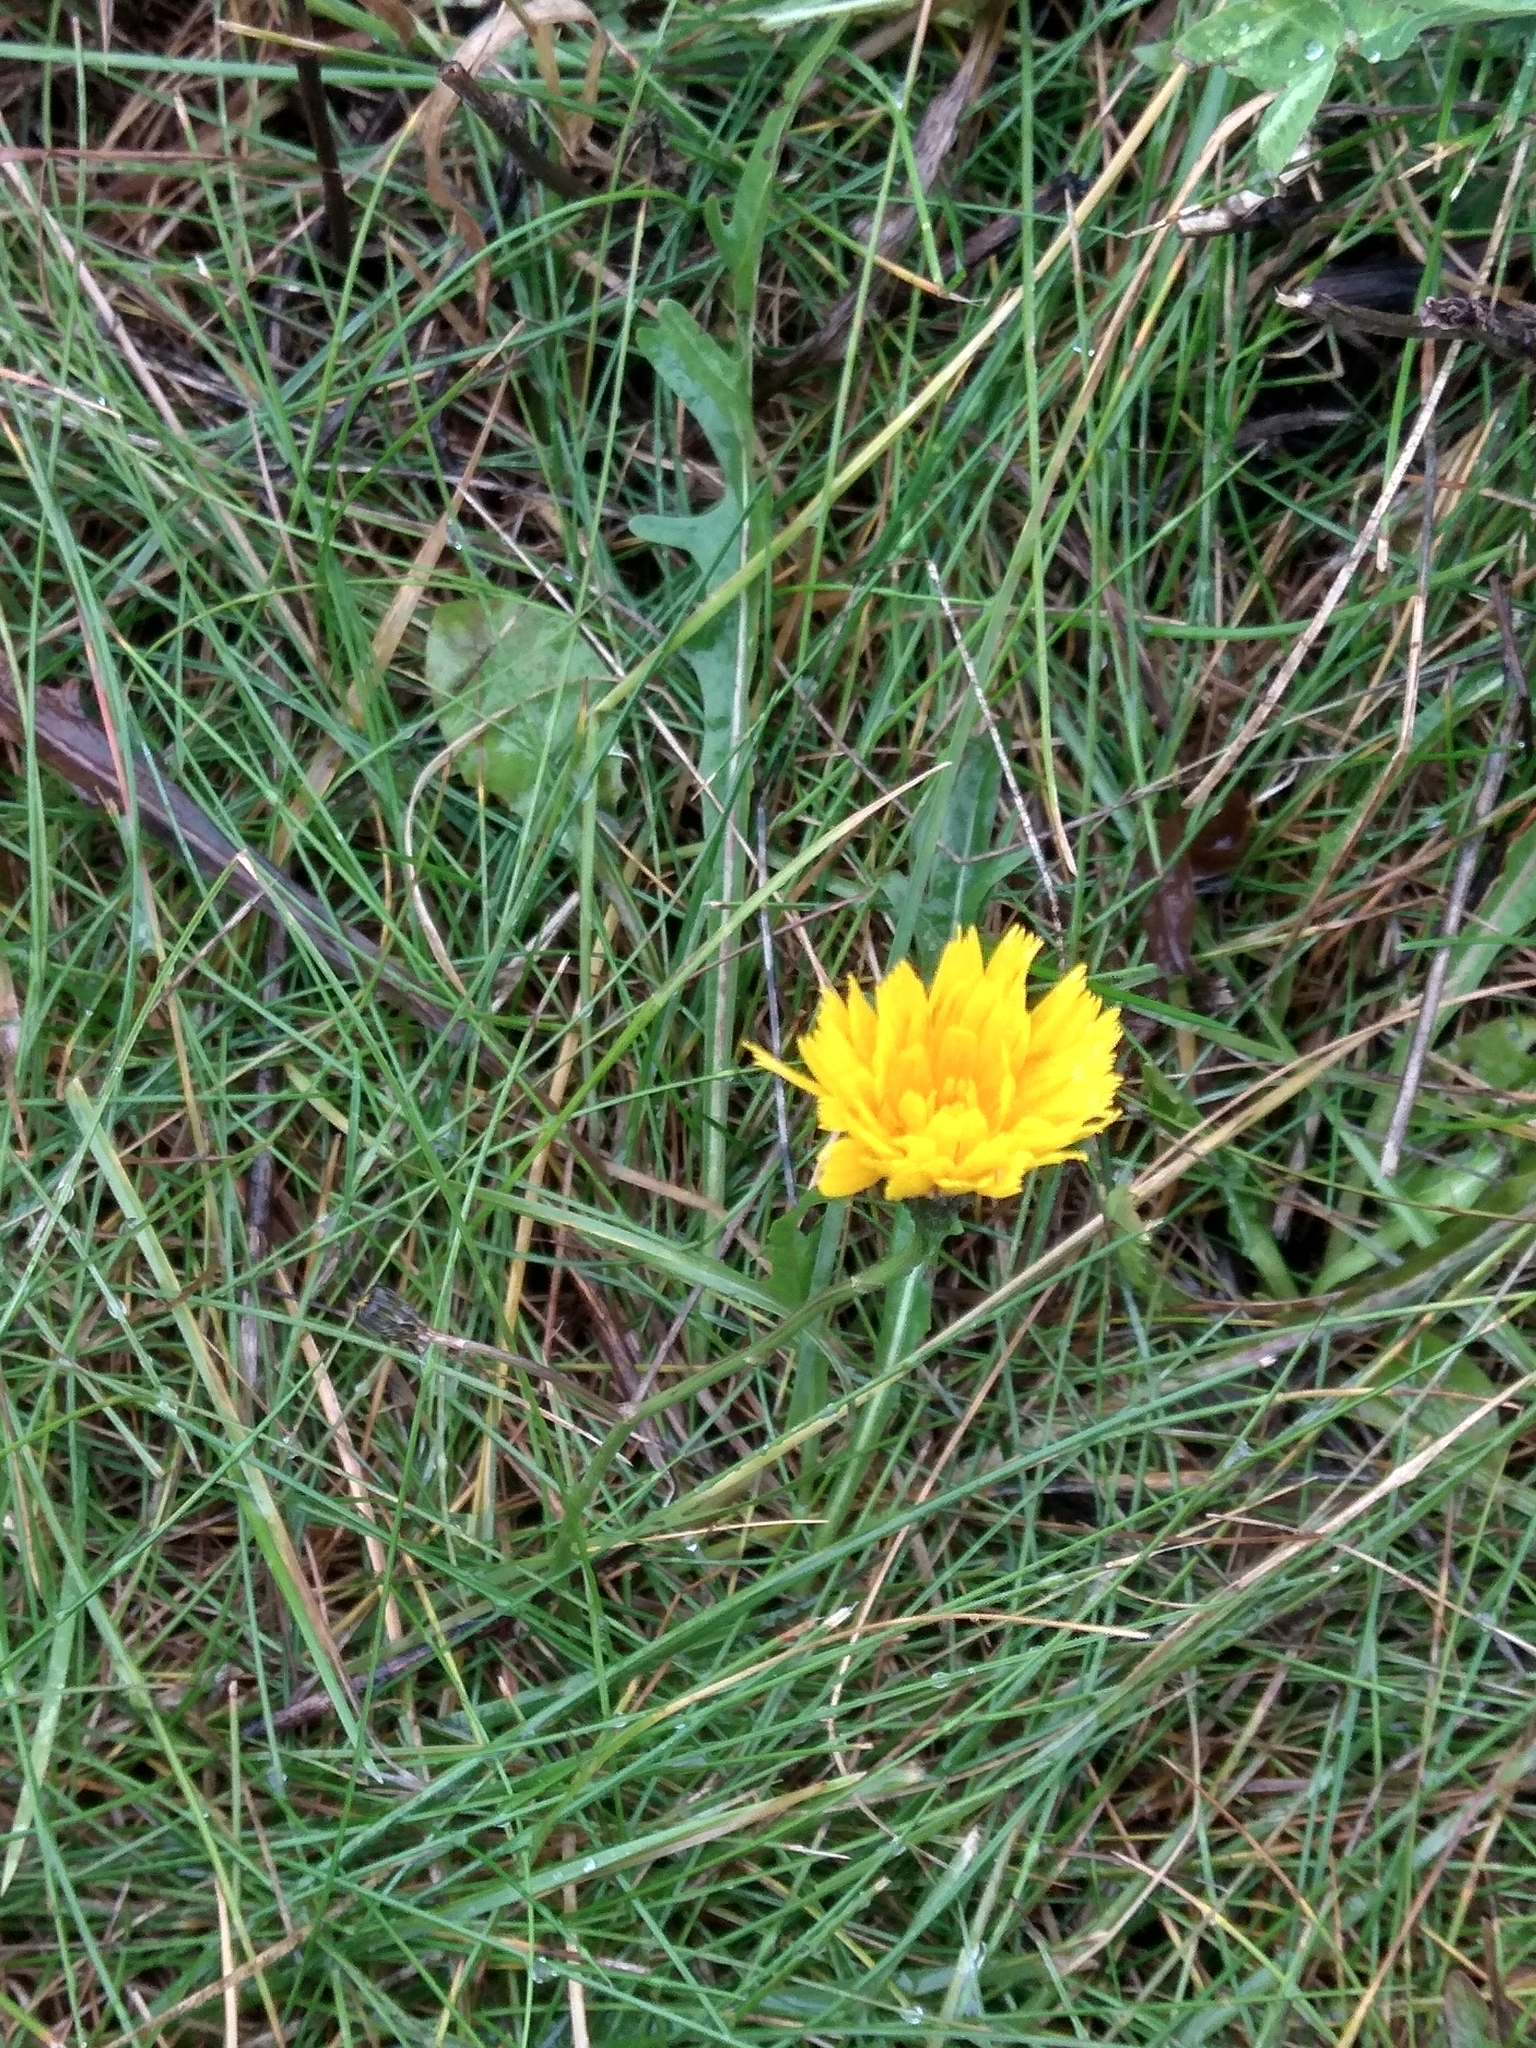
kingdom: Plantae
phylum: Tracheophyta
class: Magnoliopsida
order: Asterales
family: Asteraceae
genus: Scorzoneroides
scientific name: Scorzoneroides autumnalis
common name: Autumn hawkbit
